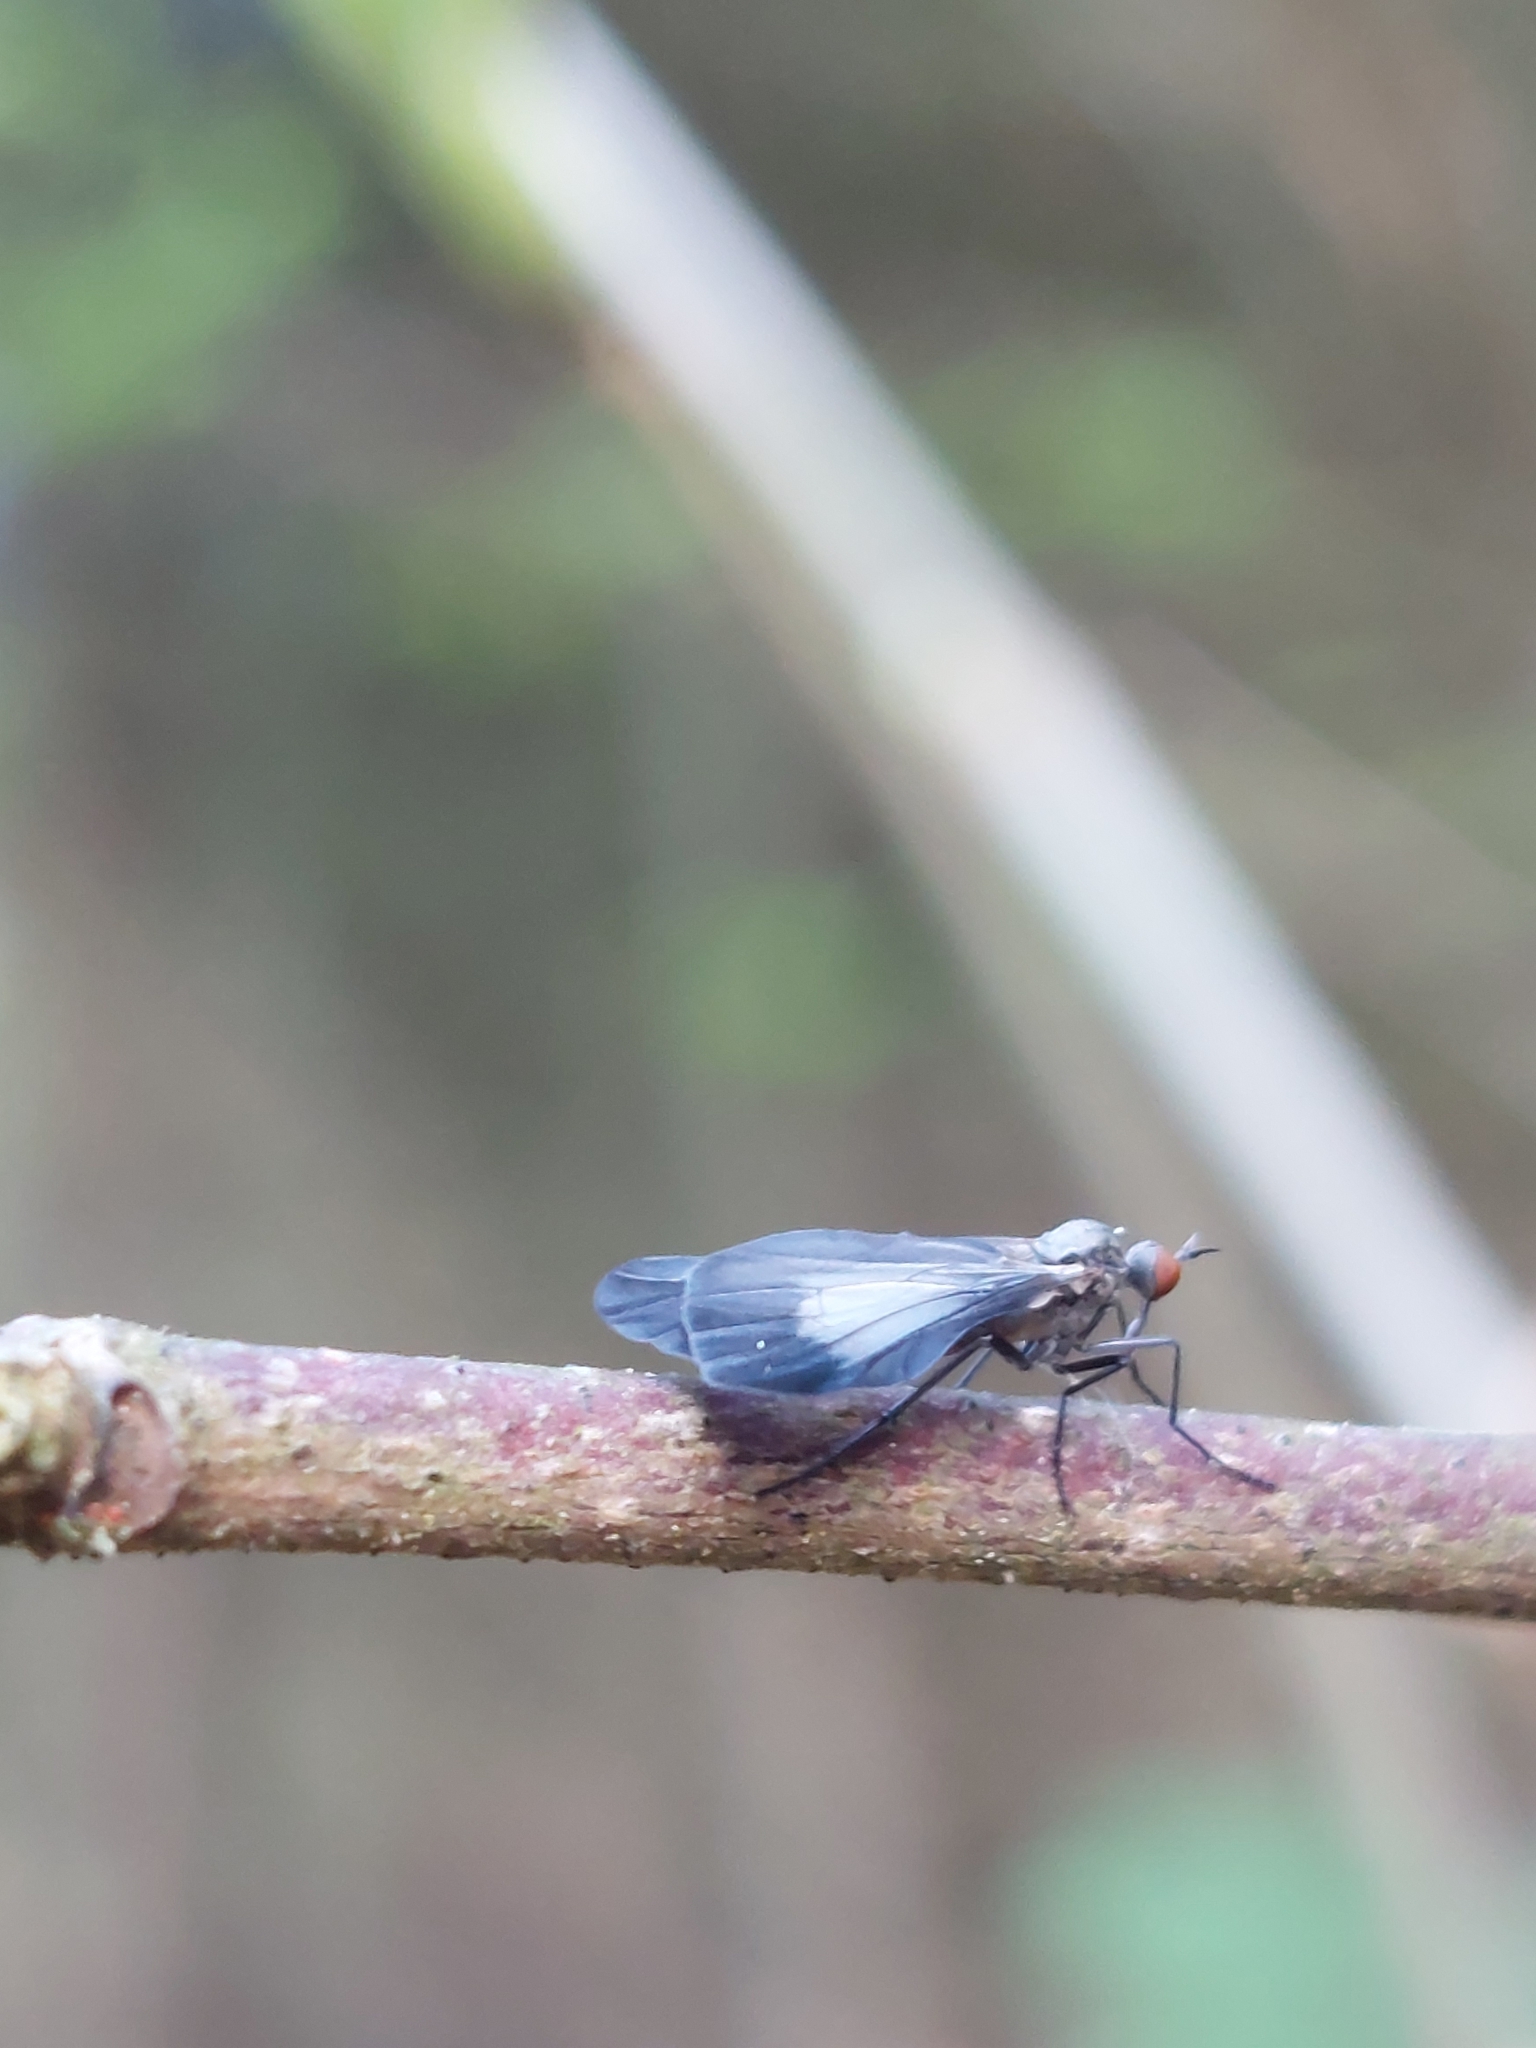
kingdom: Animalia
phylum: Arthropoda
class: Insecta
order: Diptera
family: Empididae
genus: Rhamphomyia
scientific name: Rhamphomyia marginata
